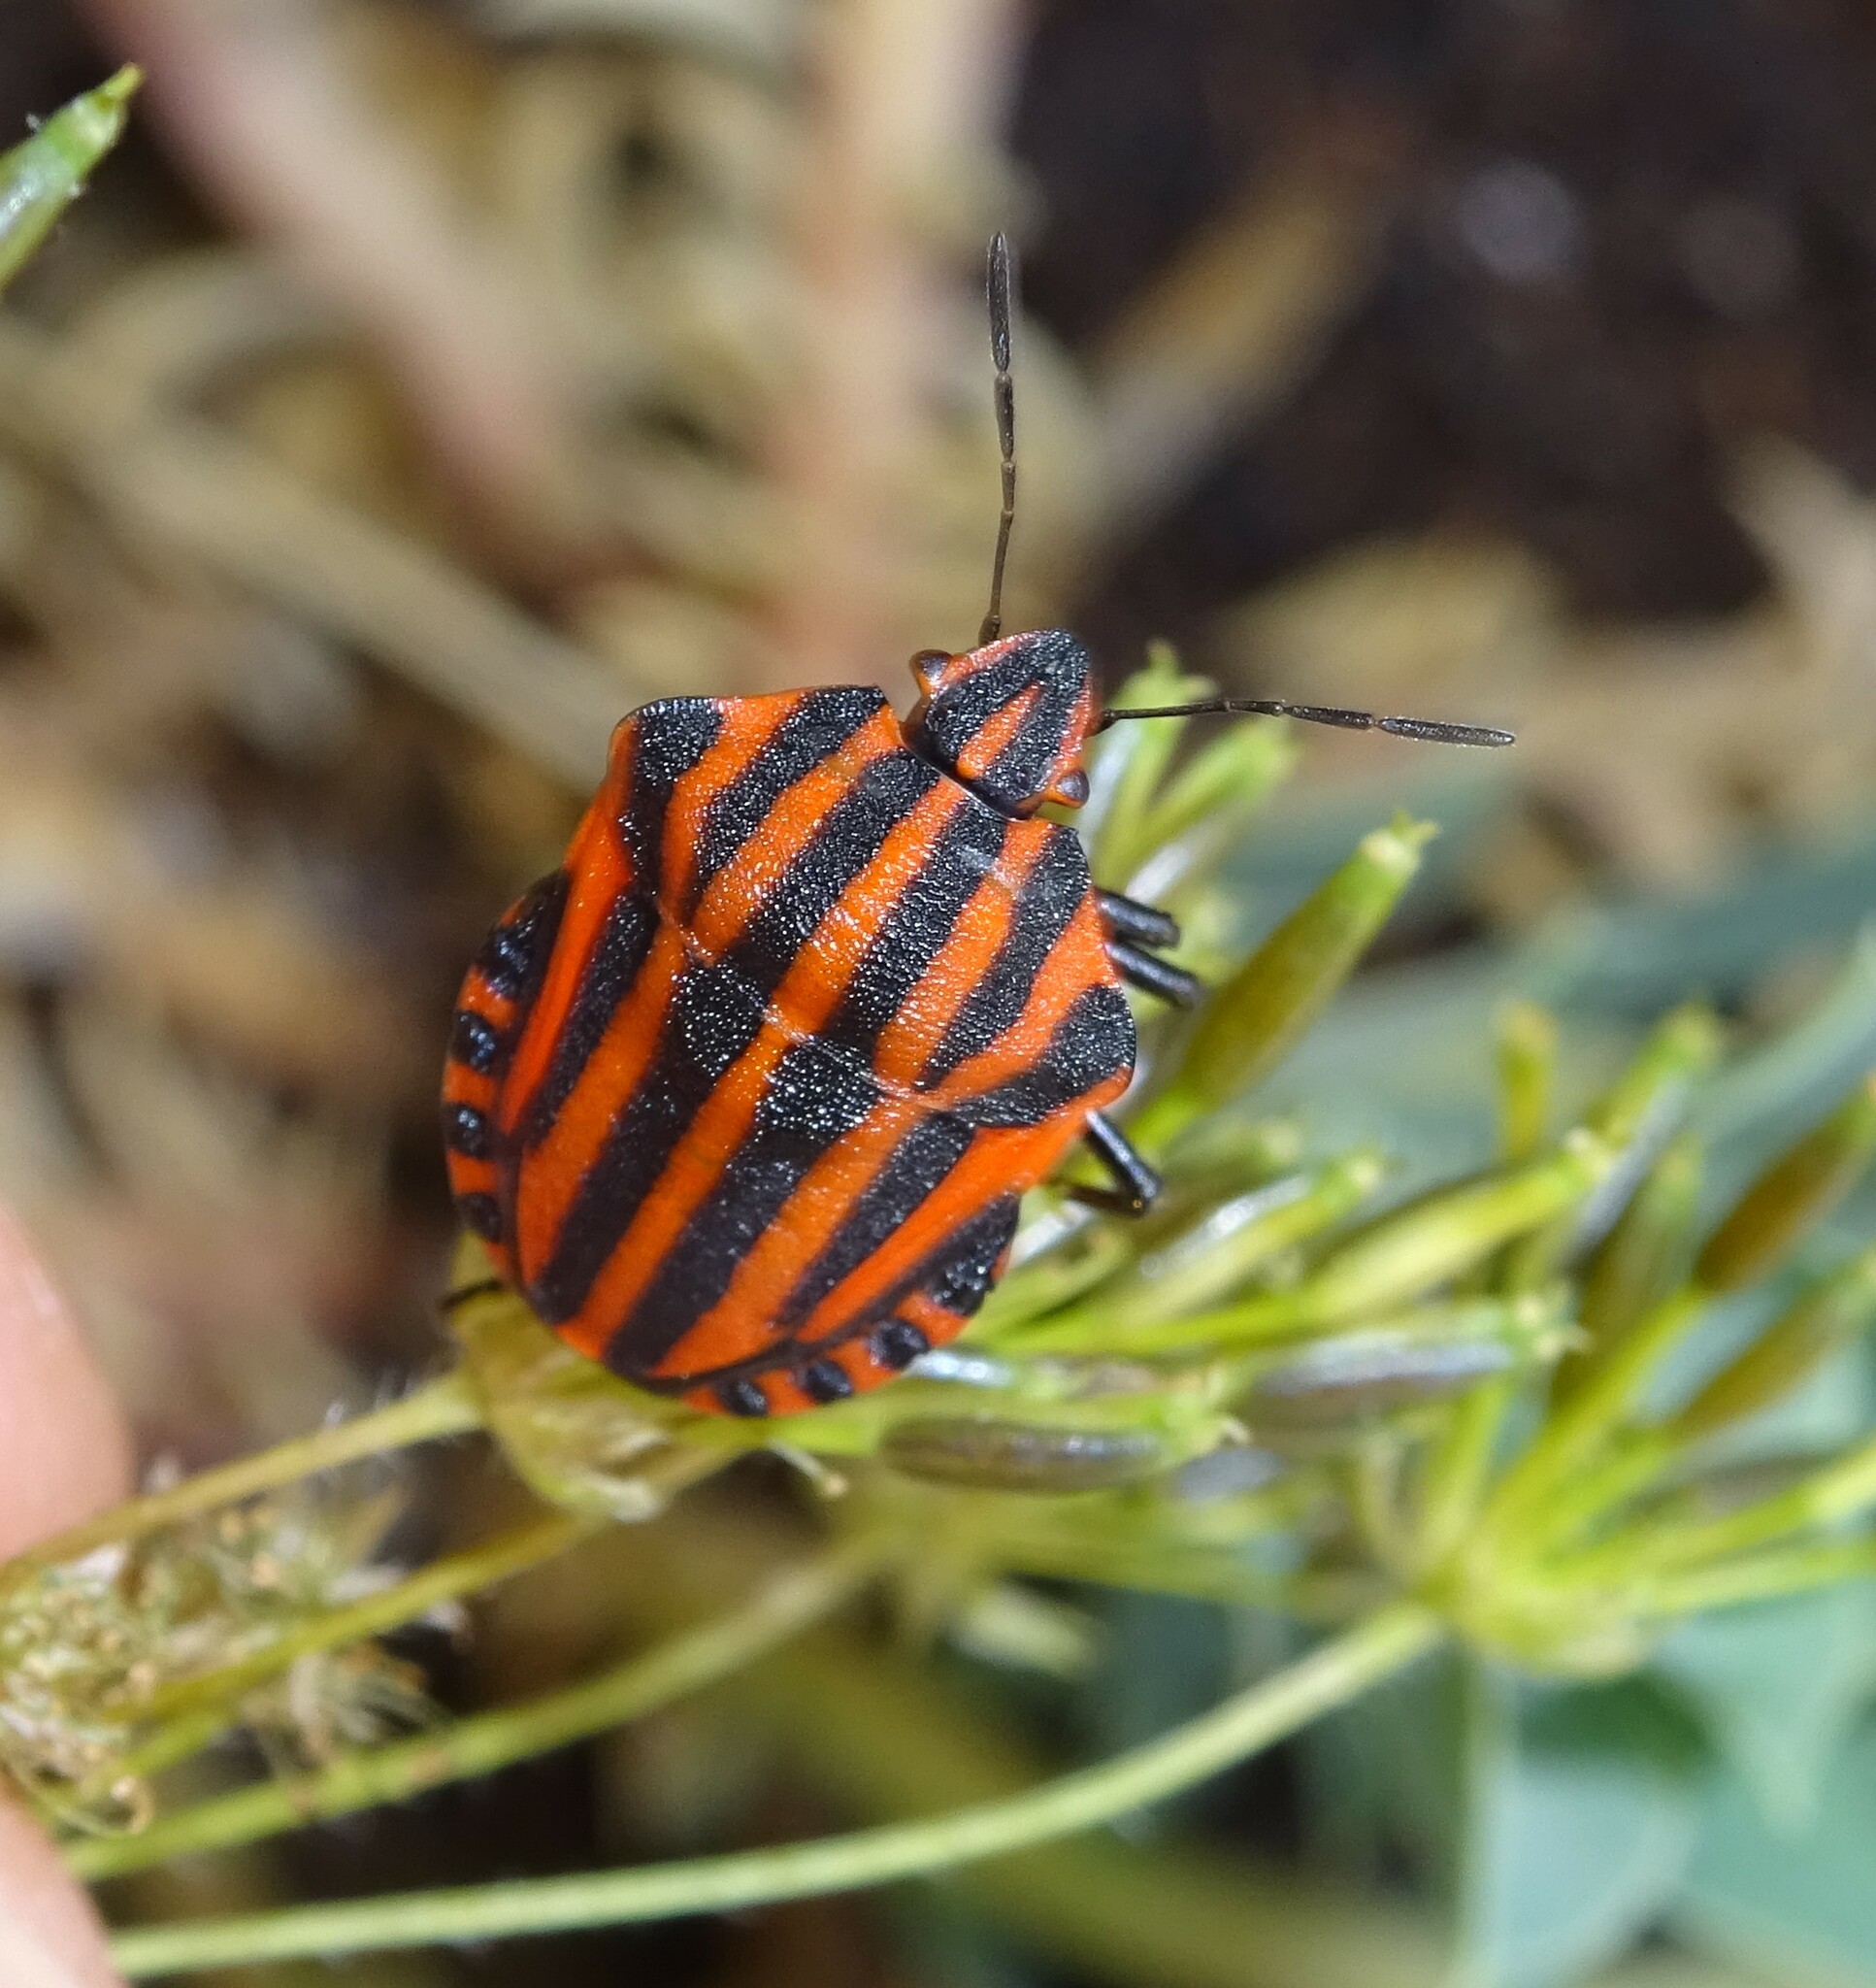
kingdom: Animalia
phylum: Arthropoda
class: Insecta
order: Hemiptera
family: Pentatomidae
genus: Graphosoma
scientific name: Graphosoma italicum
